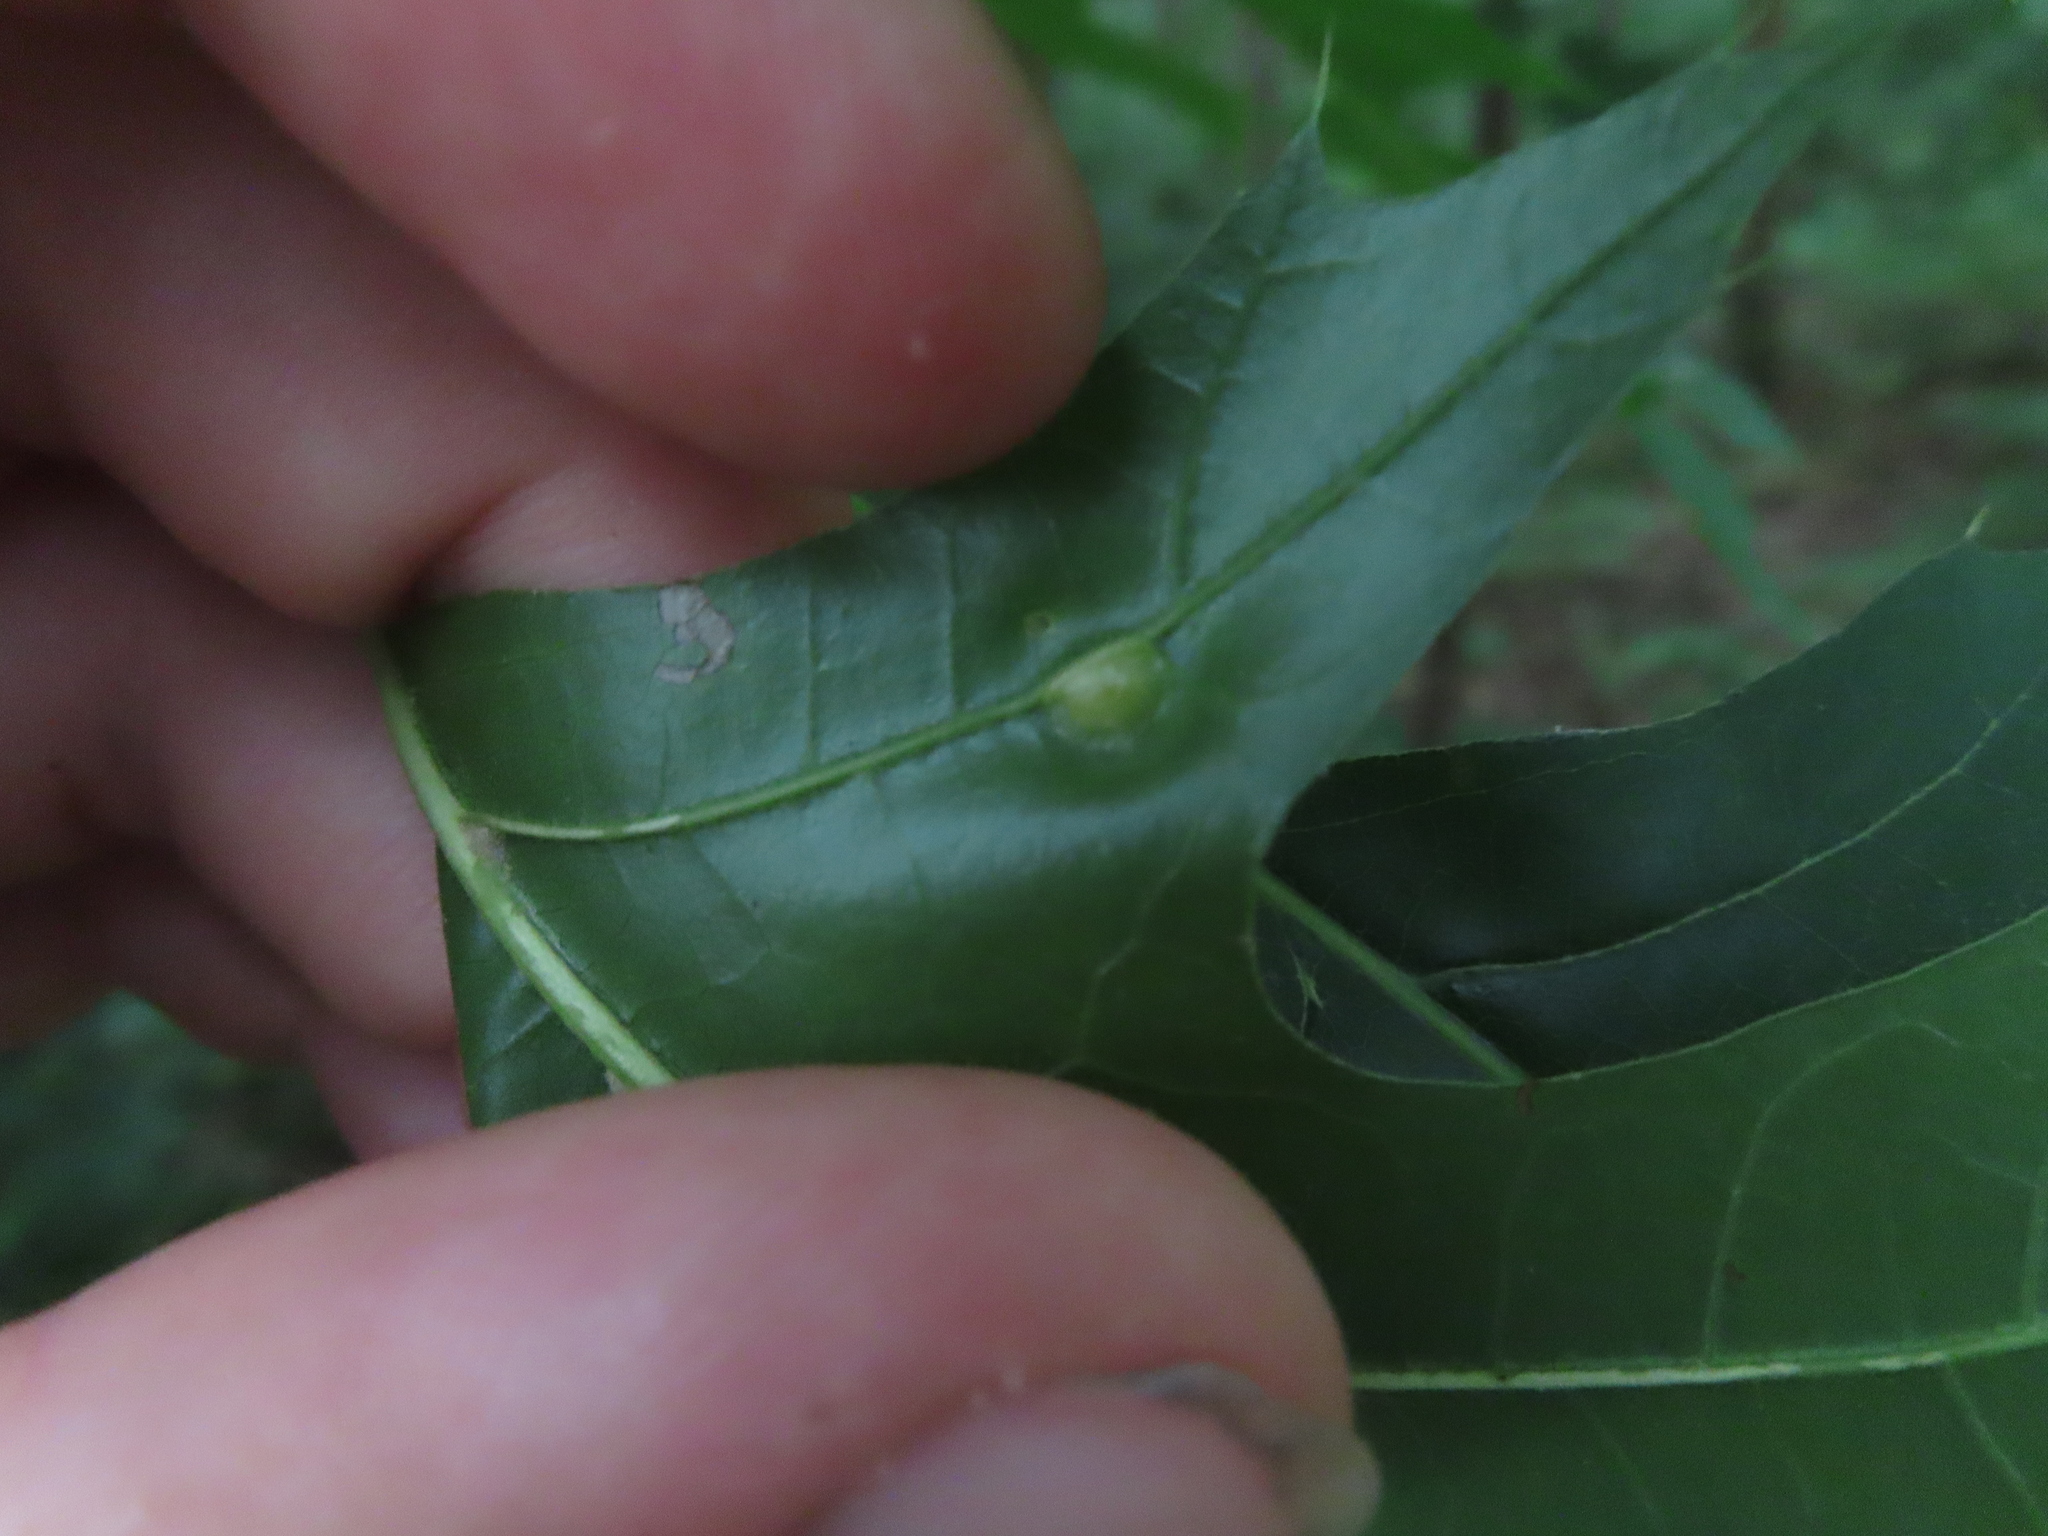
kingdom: Animalia
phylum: Arthropoda
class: Insecta
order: Diptera
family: Cecidomyiidae
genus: Polystepha
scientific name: Polystepha pilulae
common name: Oak leaf gall midge
